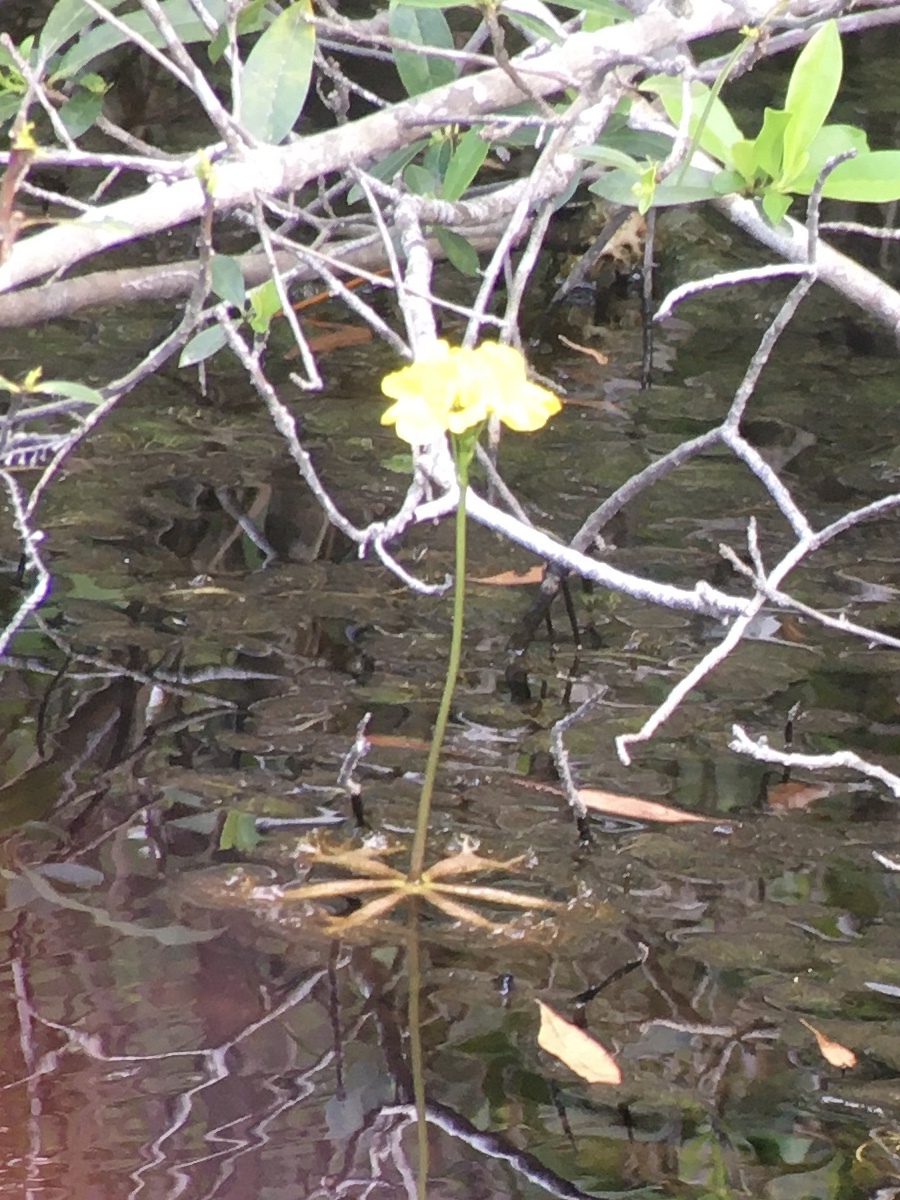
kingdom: Plantae
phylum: Tracheophyta
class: Magnoliopsida
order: Lamiales
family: Lentibulariaceae
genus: Utricularia
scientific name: Utricularia inflata
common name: Floating bladderwort
